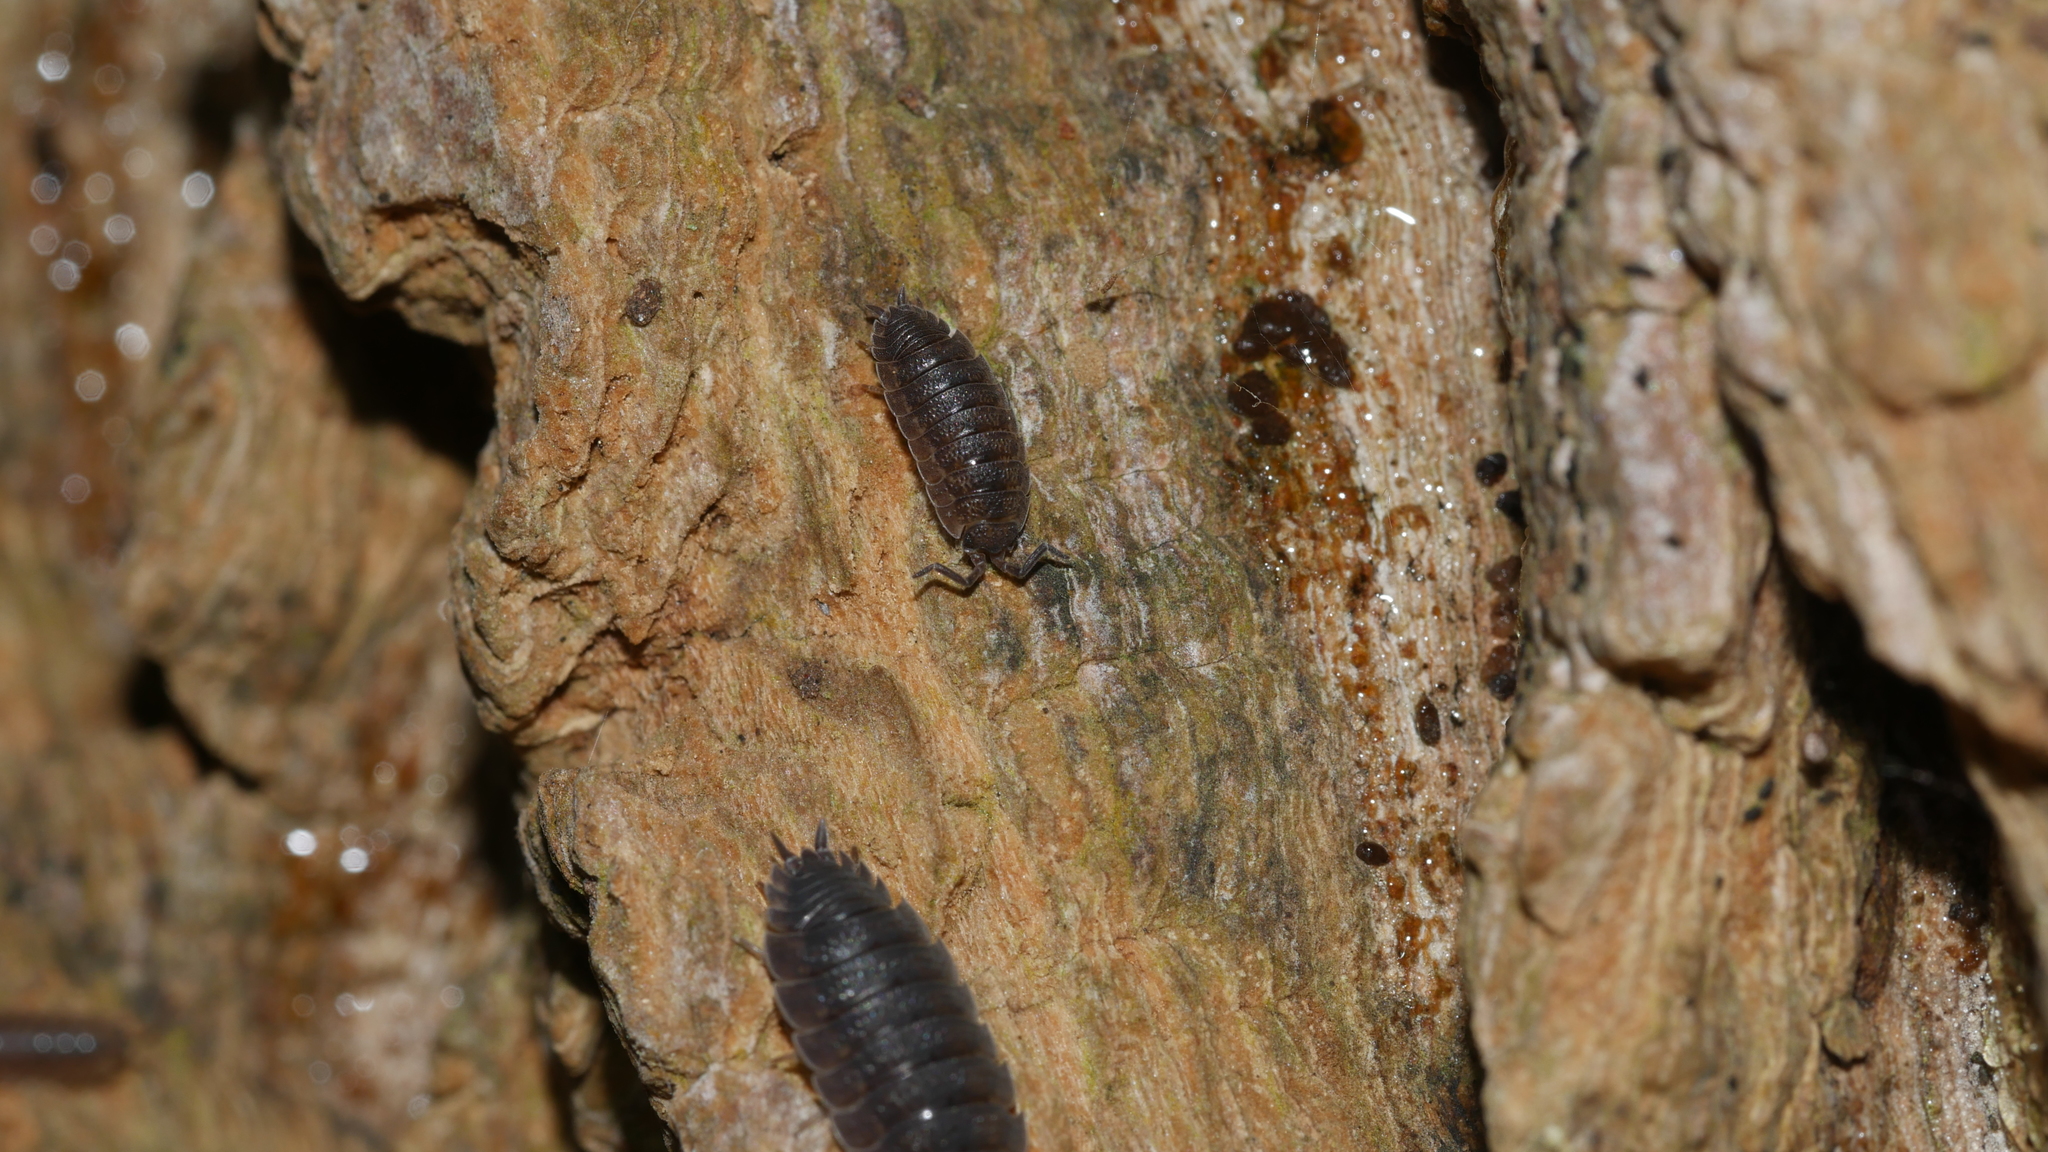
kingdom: Animalia
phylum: Arthropoda
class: Malacostraca
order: Isopoda
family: Porcellionidae
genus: Porcellio
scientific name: Porcellio scaber
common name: Common rough woodlouse
